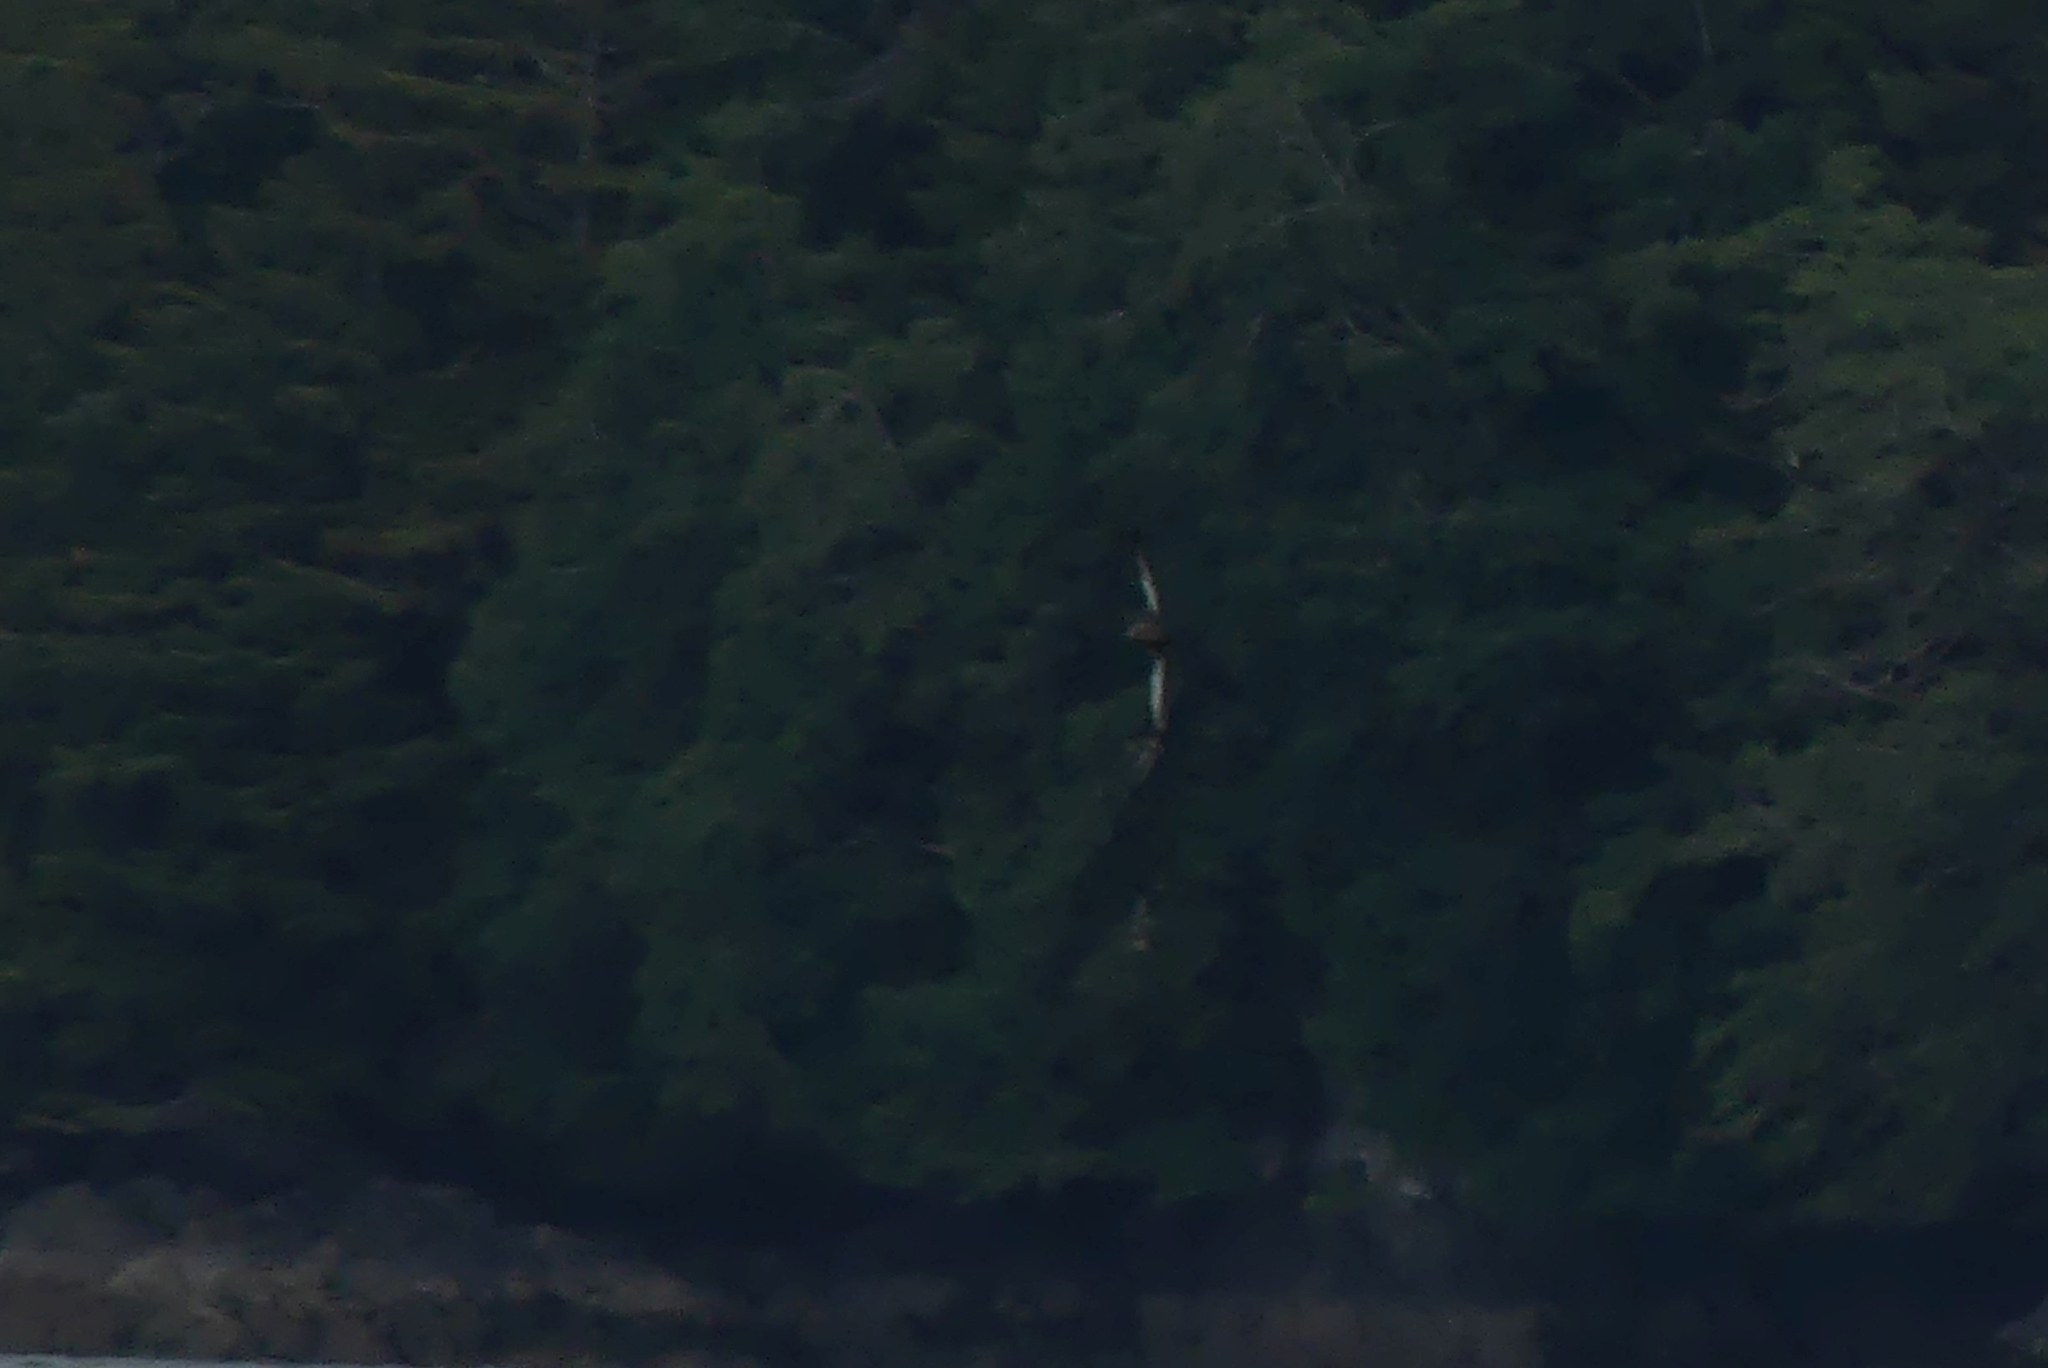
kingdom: Animalia
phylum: Chordata
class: Aves
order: Procellariiformes
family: Procellariidae
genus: Puffinus
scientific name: Puffinus tenuirostris
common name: Short-tailed shearwater
